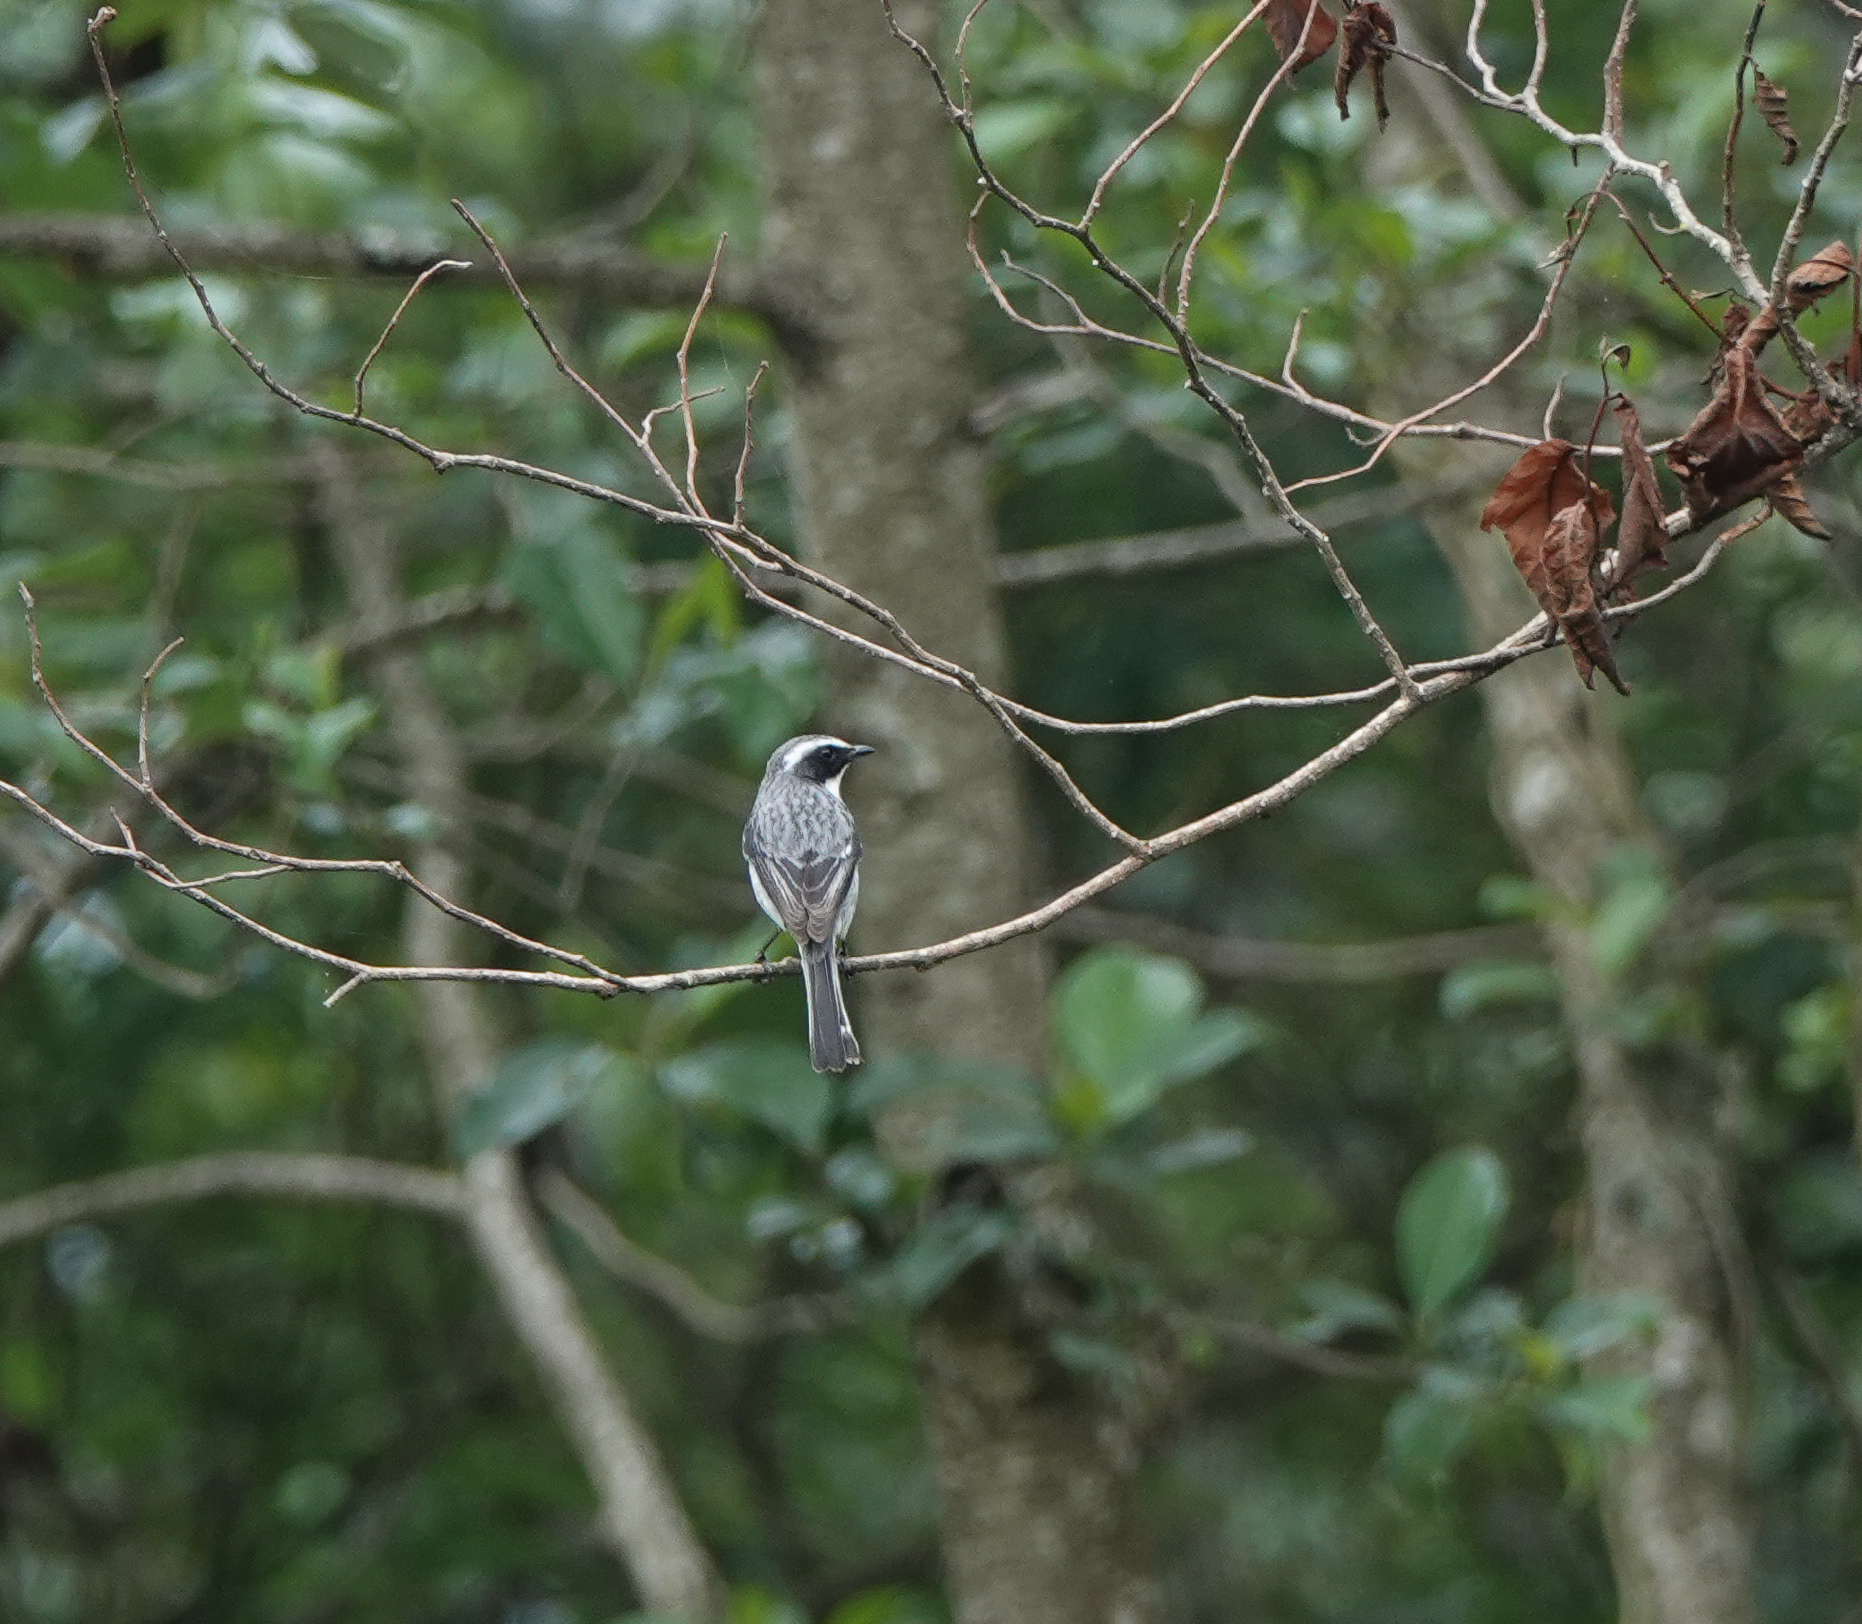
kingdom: Animalia
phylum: Chordata
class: Aves
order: Passeriformes
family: Muscicapidae
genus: Saxicola
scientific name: Saxicola ferreus
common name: Grey bush chat
